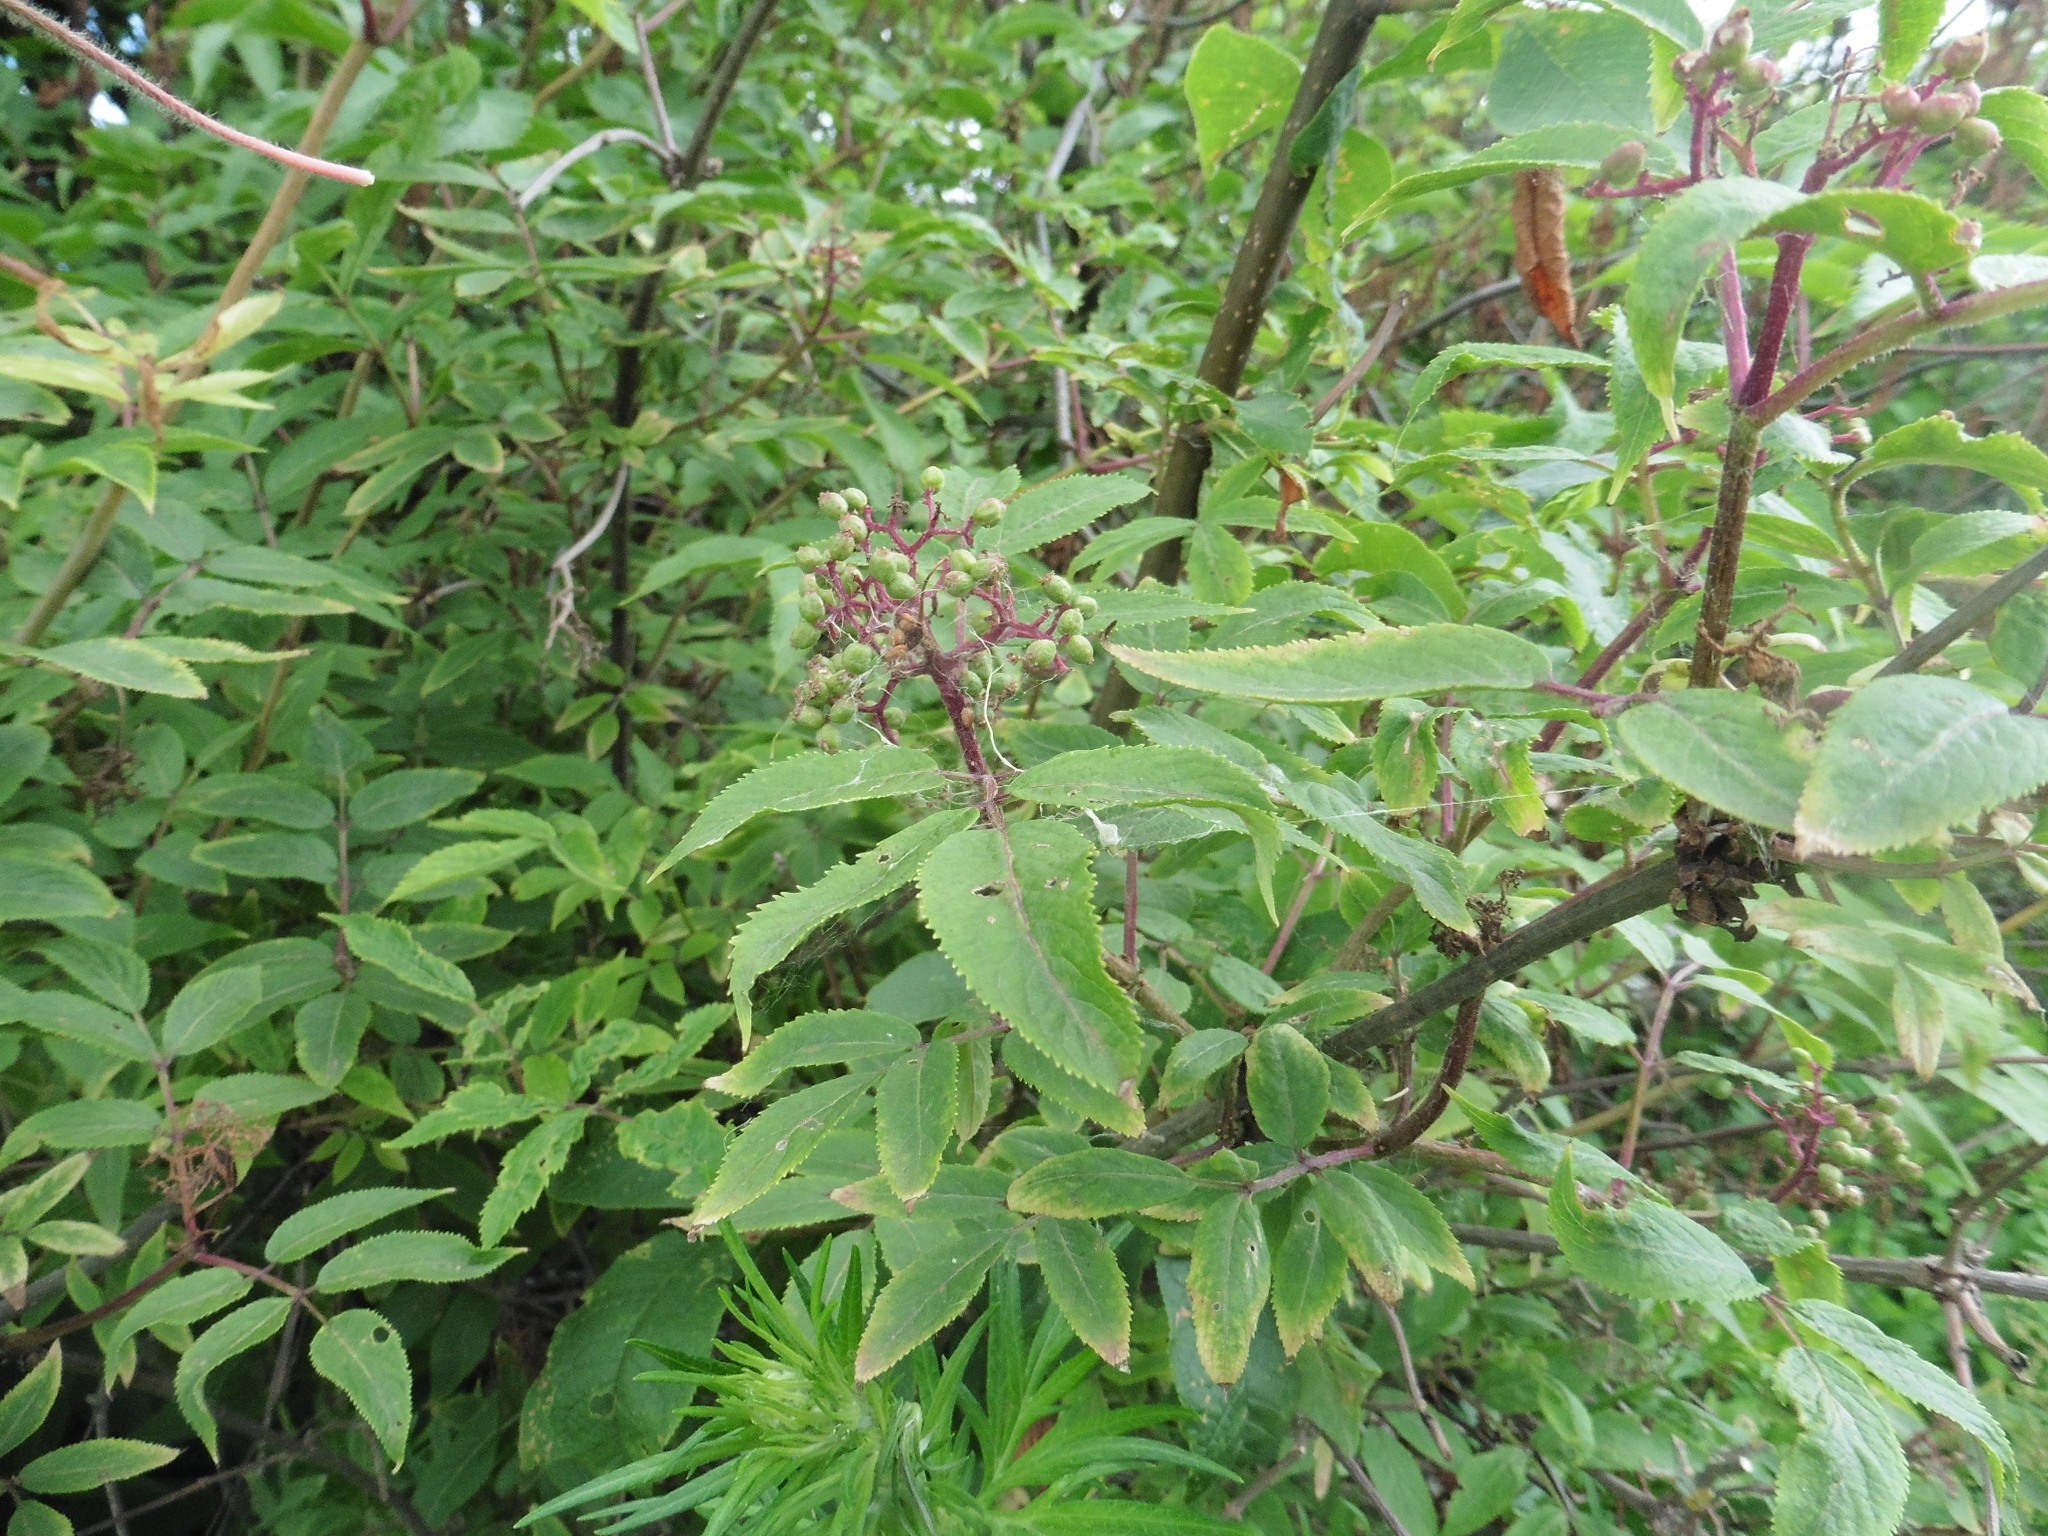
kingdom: Plantae
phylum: Tracheophyta
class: Magnoliopsida
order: Dipsacales
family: Viburnaceae
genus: Sambucus
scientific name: Sambucus racemosa
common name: Red-berried elder
